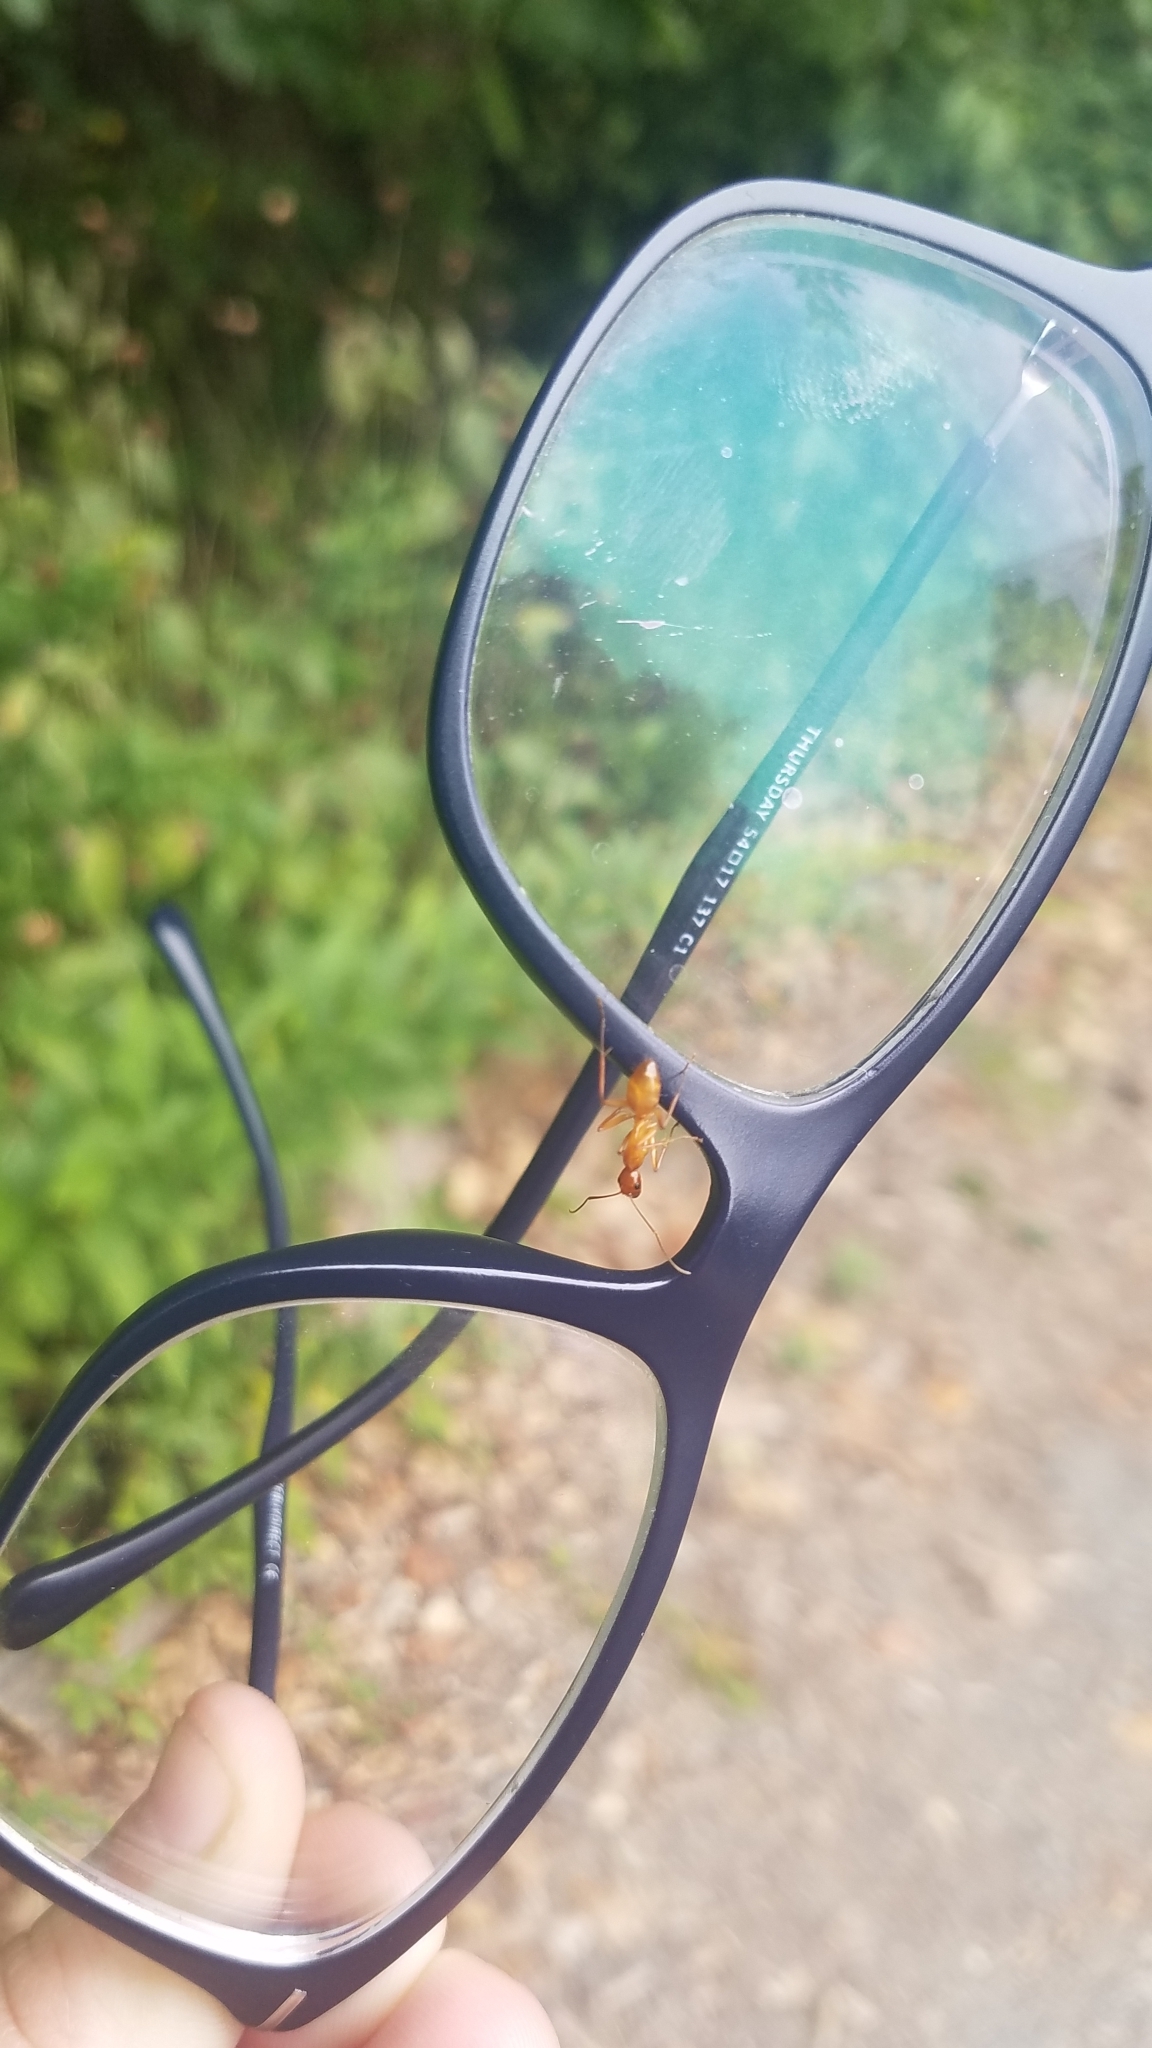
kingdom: Animalia
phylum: Arthropoda
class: Insecta
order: Hymenoptera
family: Formicidae
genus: Camponotus
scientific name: Camponotus castaneus
